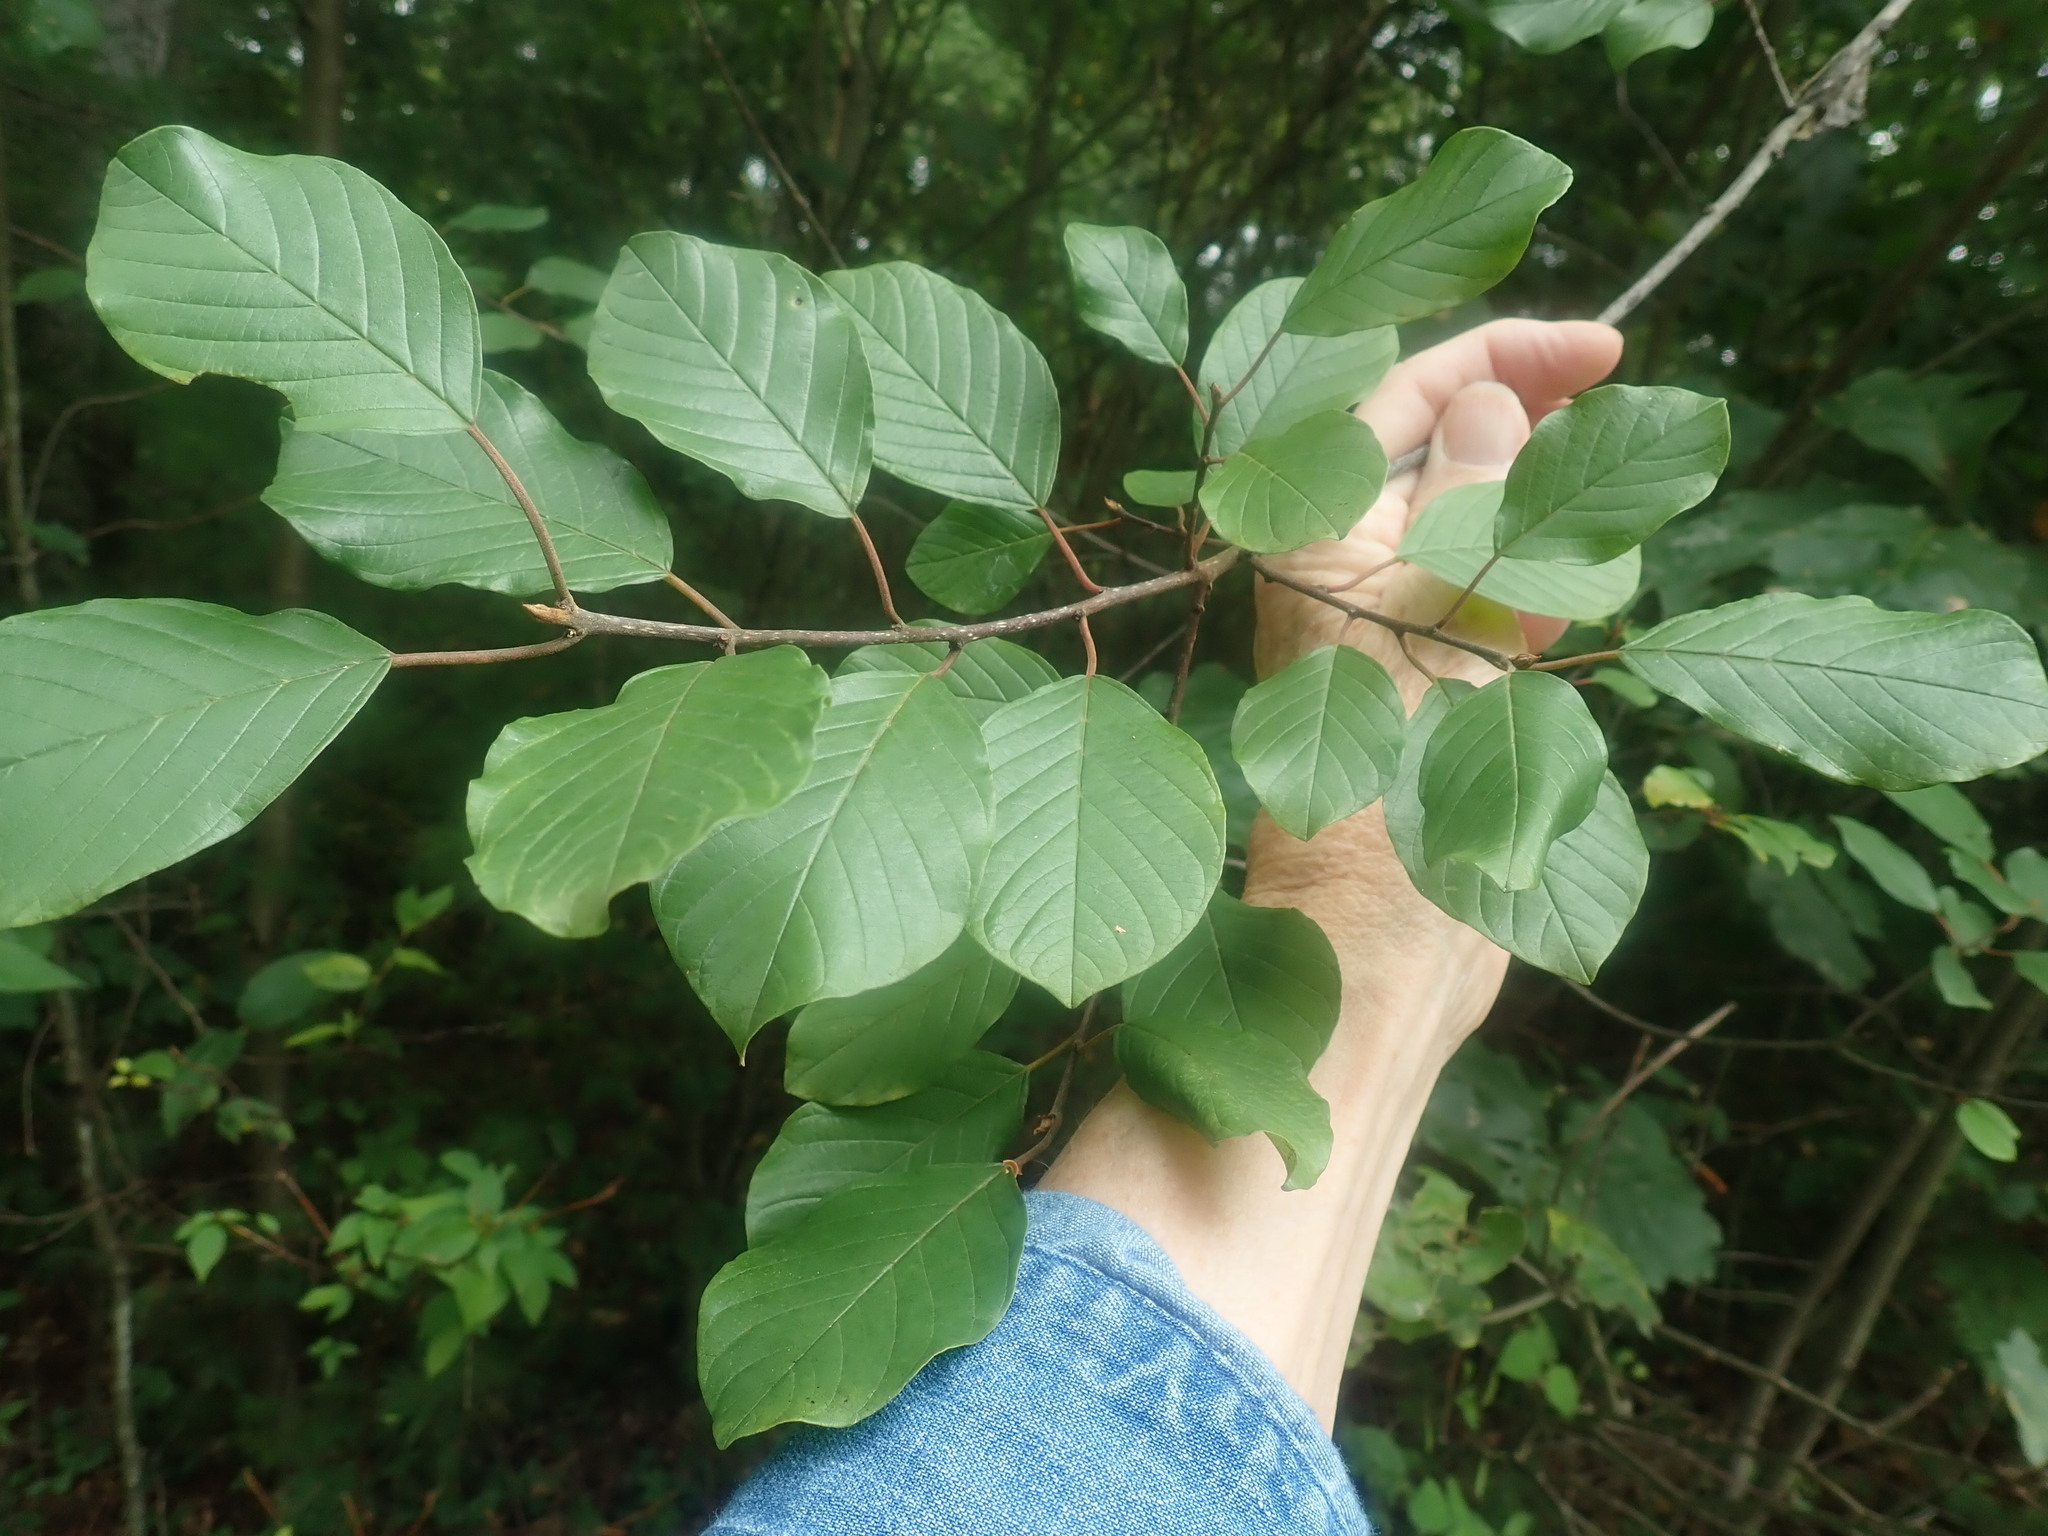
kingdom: Plantae
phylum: Tracheophyta
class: Magnoliopsida
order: Rosales
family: Rhamnaceae
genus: Frangula
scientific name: Frangula alnus
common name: Alder buckthorn
